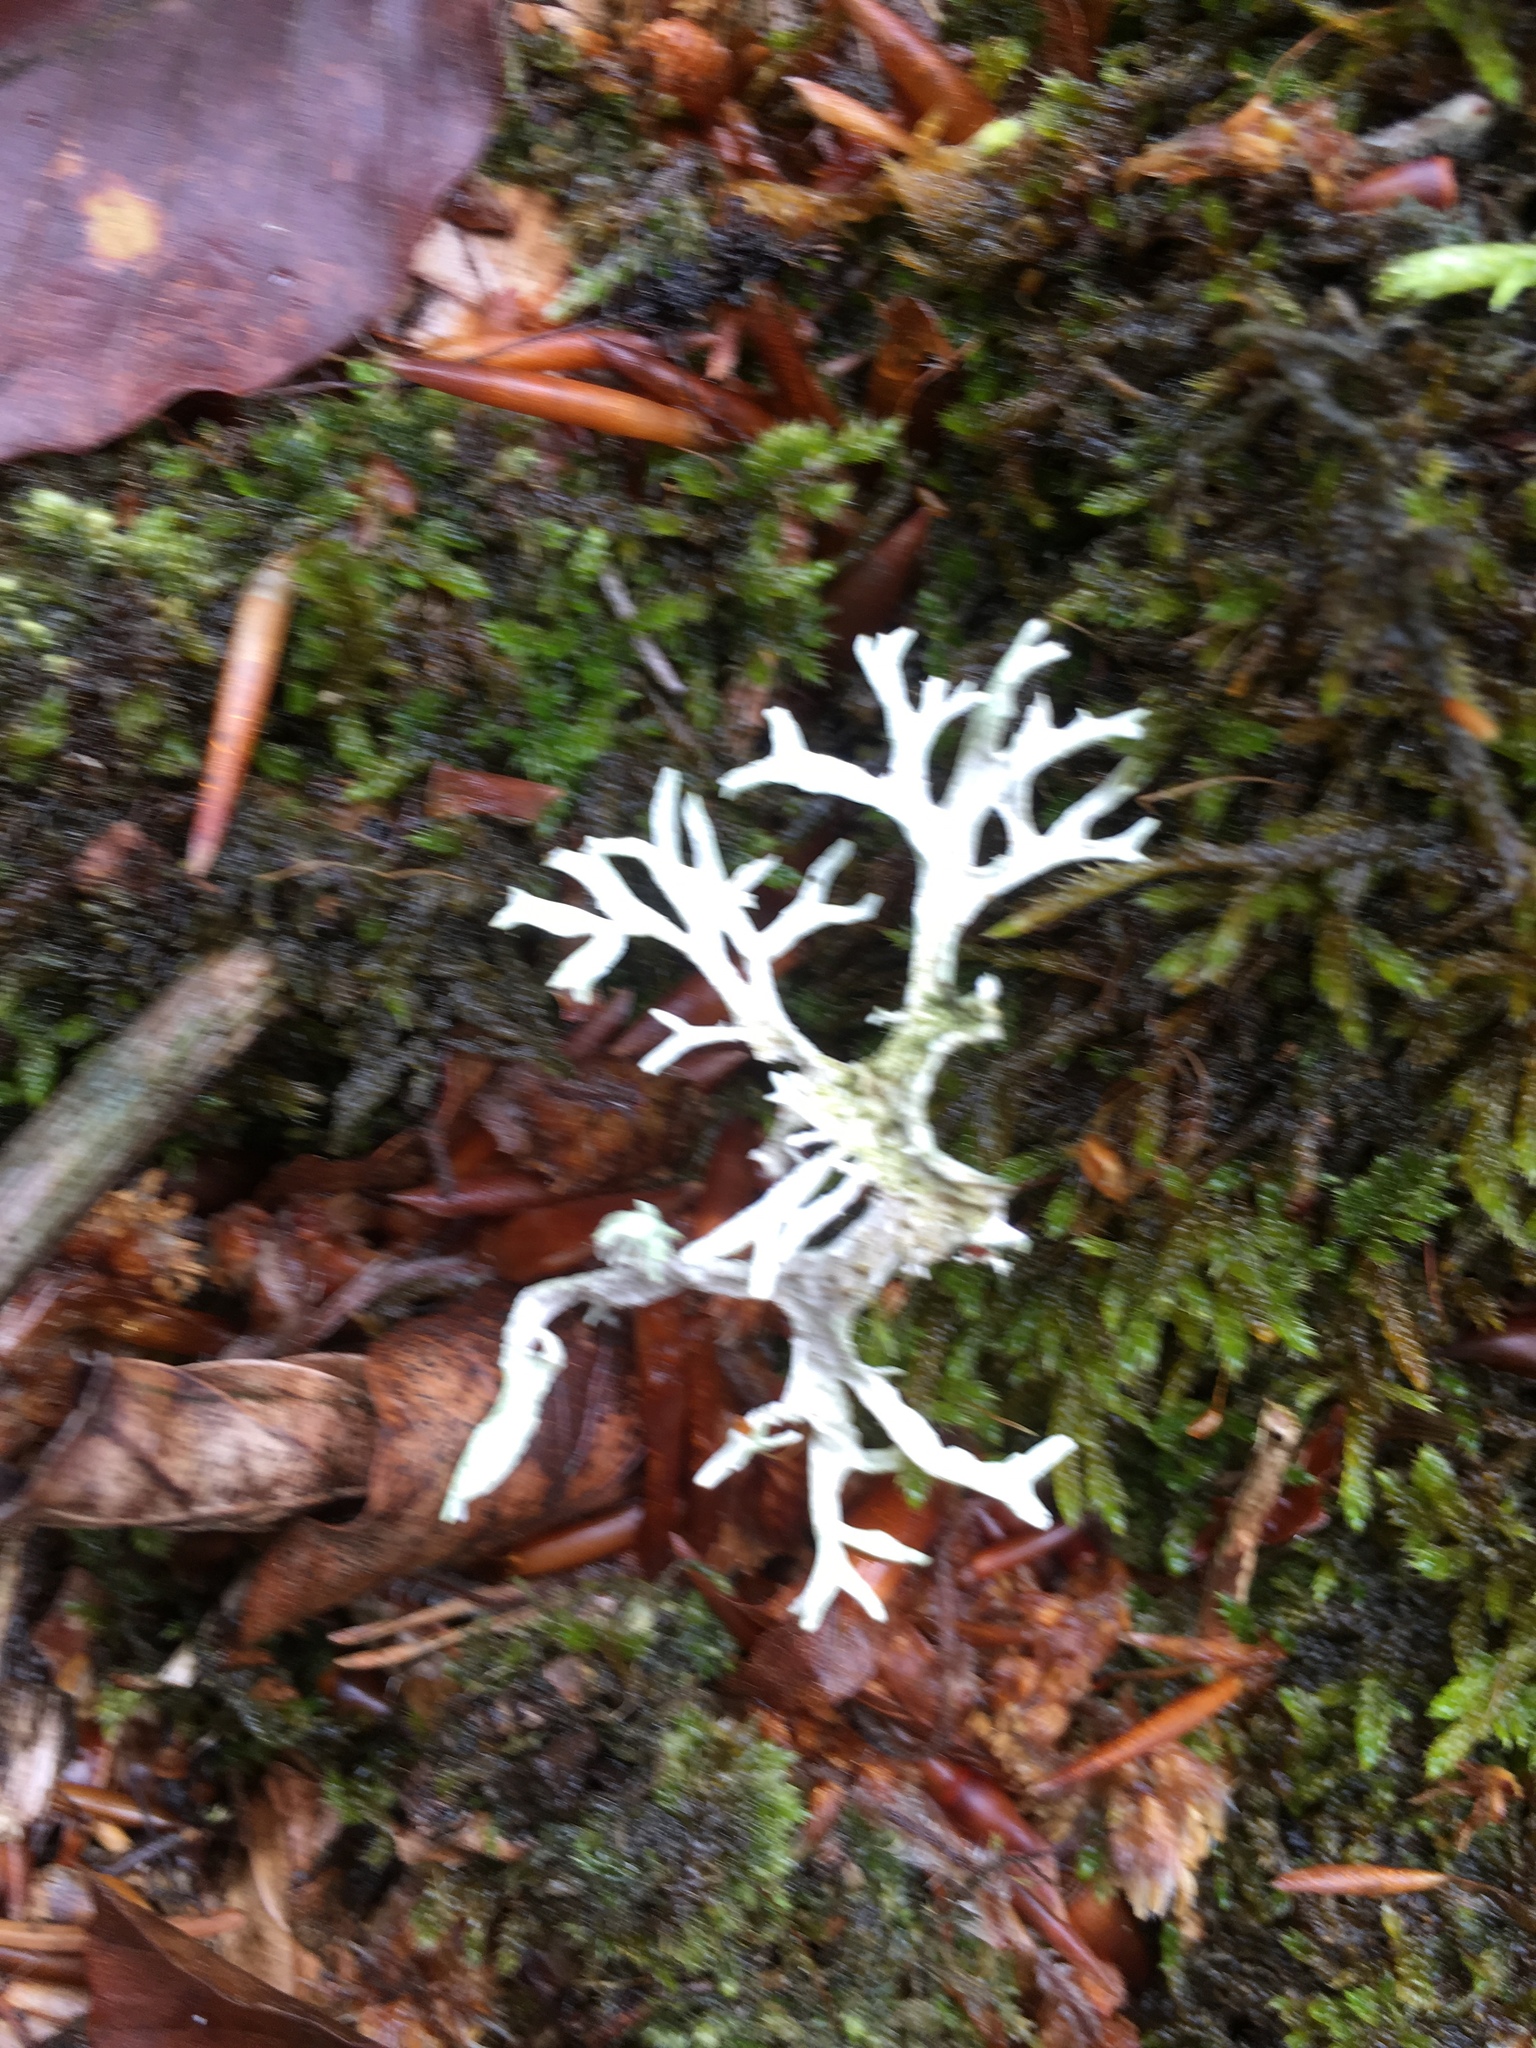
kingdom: Fungi
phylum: Ascomycota
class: Lecanoromycetes
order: Lecanorales
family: Parmeliaceae
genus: Evernia
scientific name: Evernia prunastri
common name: Oak moss
